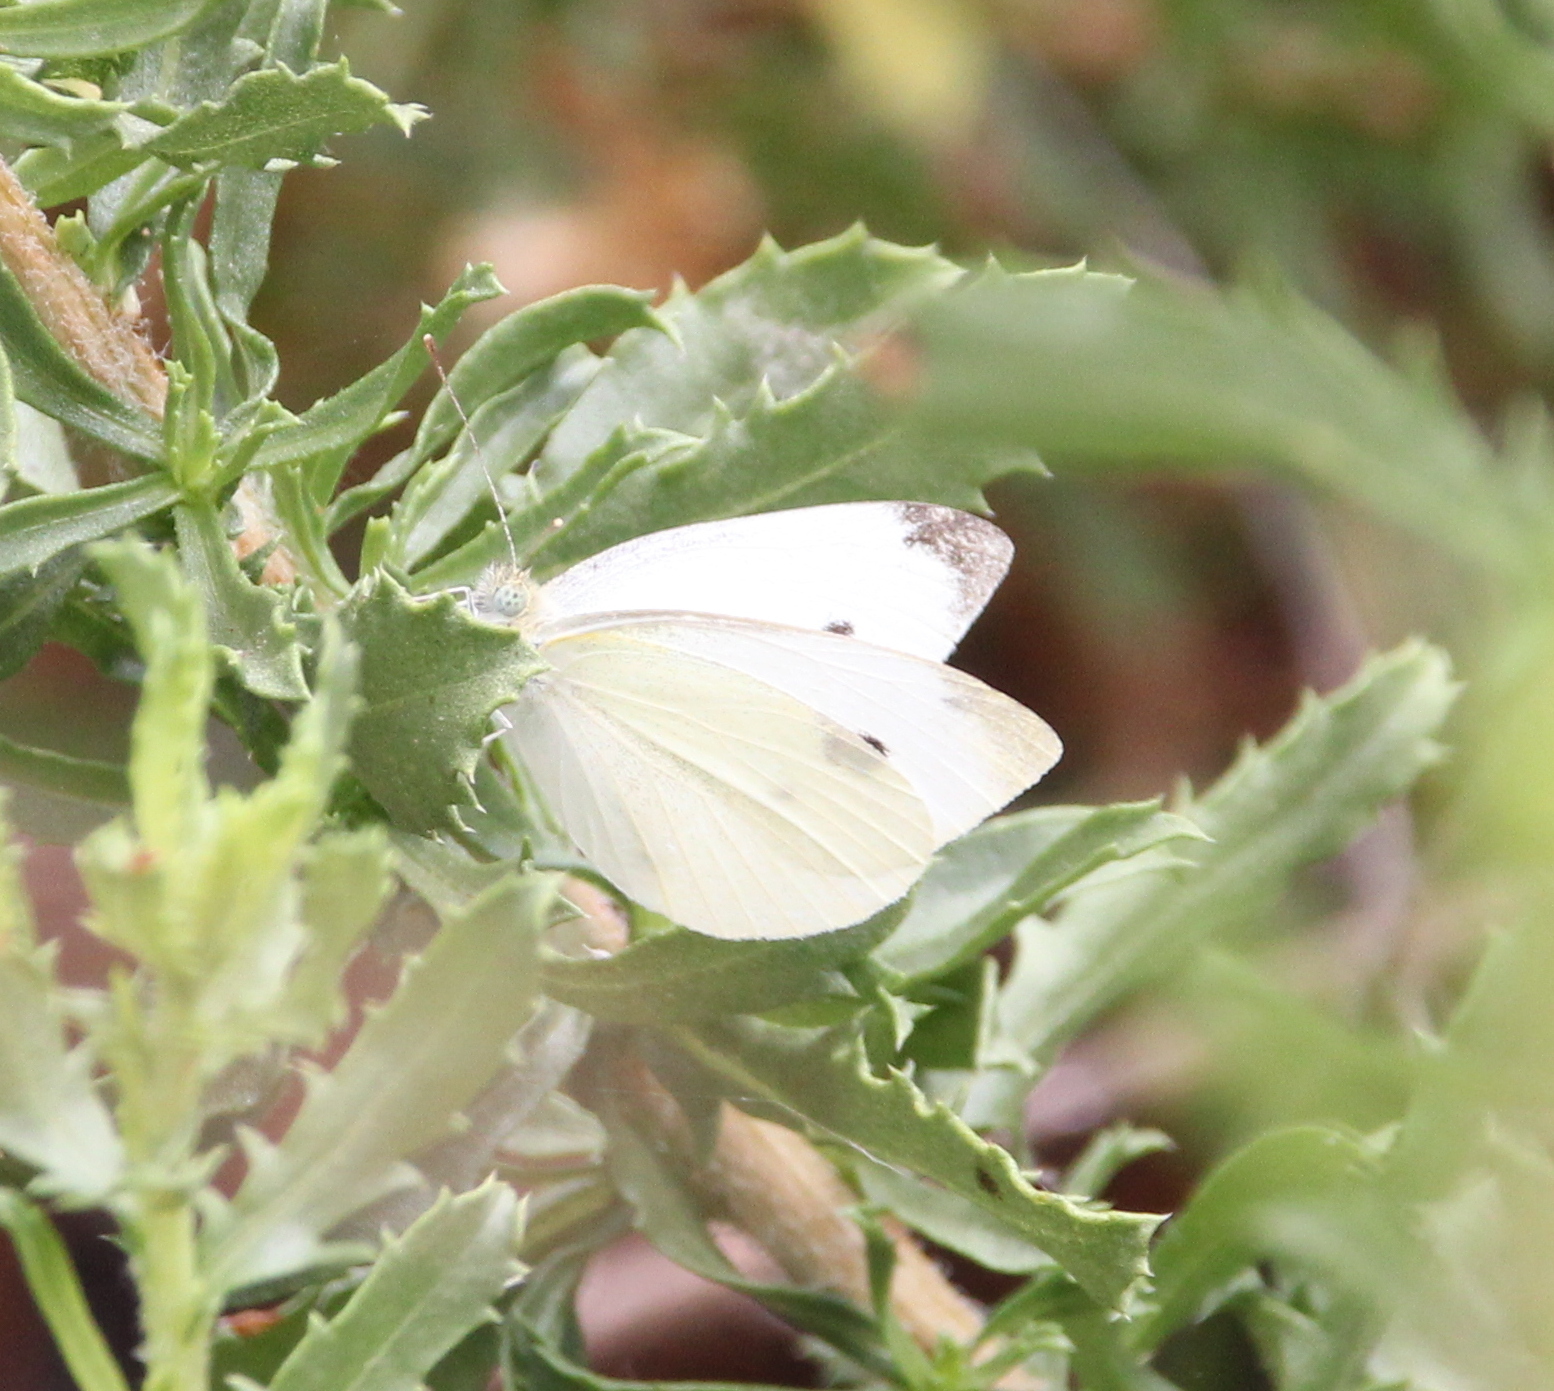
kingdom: Animalia
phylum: Arthropoda
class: Insecta
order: Lepidoptera
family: Pieridae
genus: Pieris
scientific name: Pieris rapae
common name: Small white
